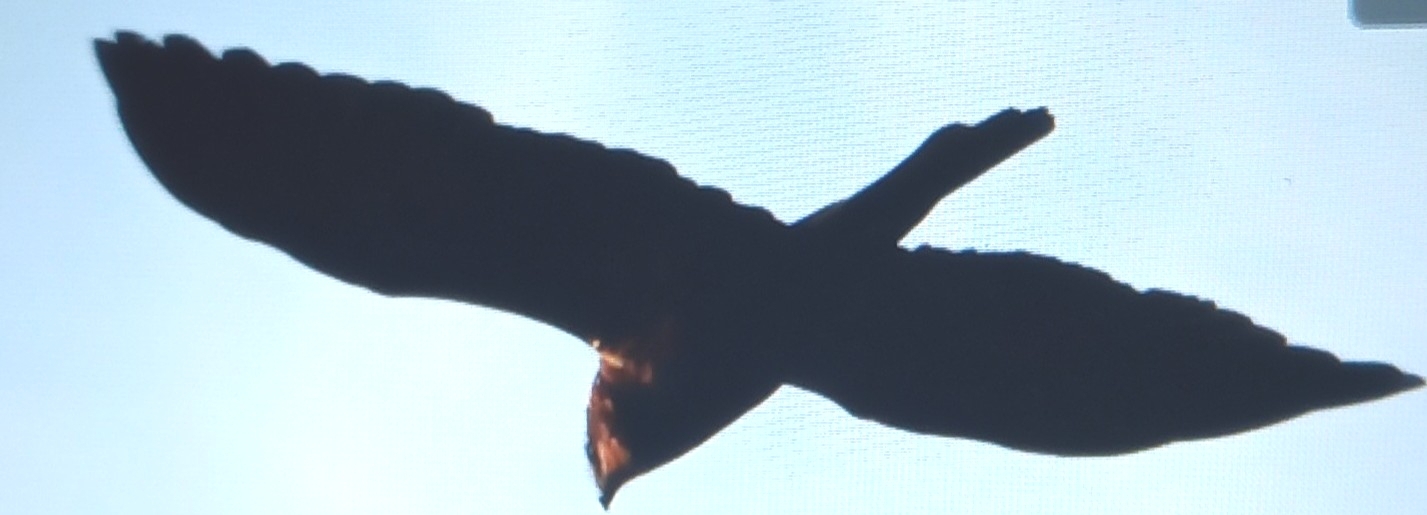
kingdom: Animalia
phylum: Chordata
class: Aves
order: Accipitriformes
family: Accipitridae
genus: Circus
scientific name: Circus aeruginosus
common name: Western marsh harrier
